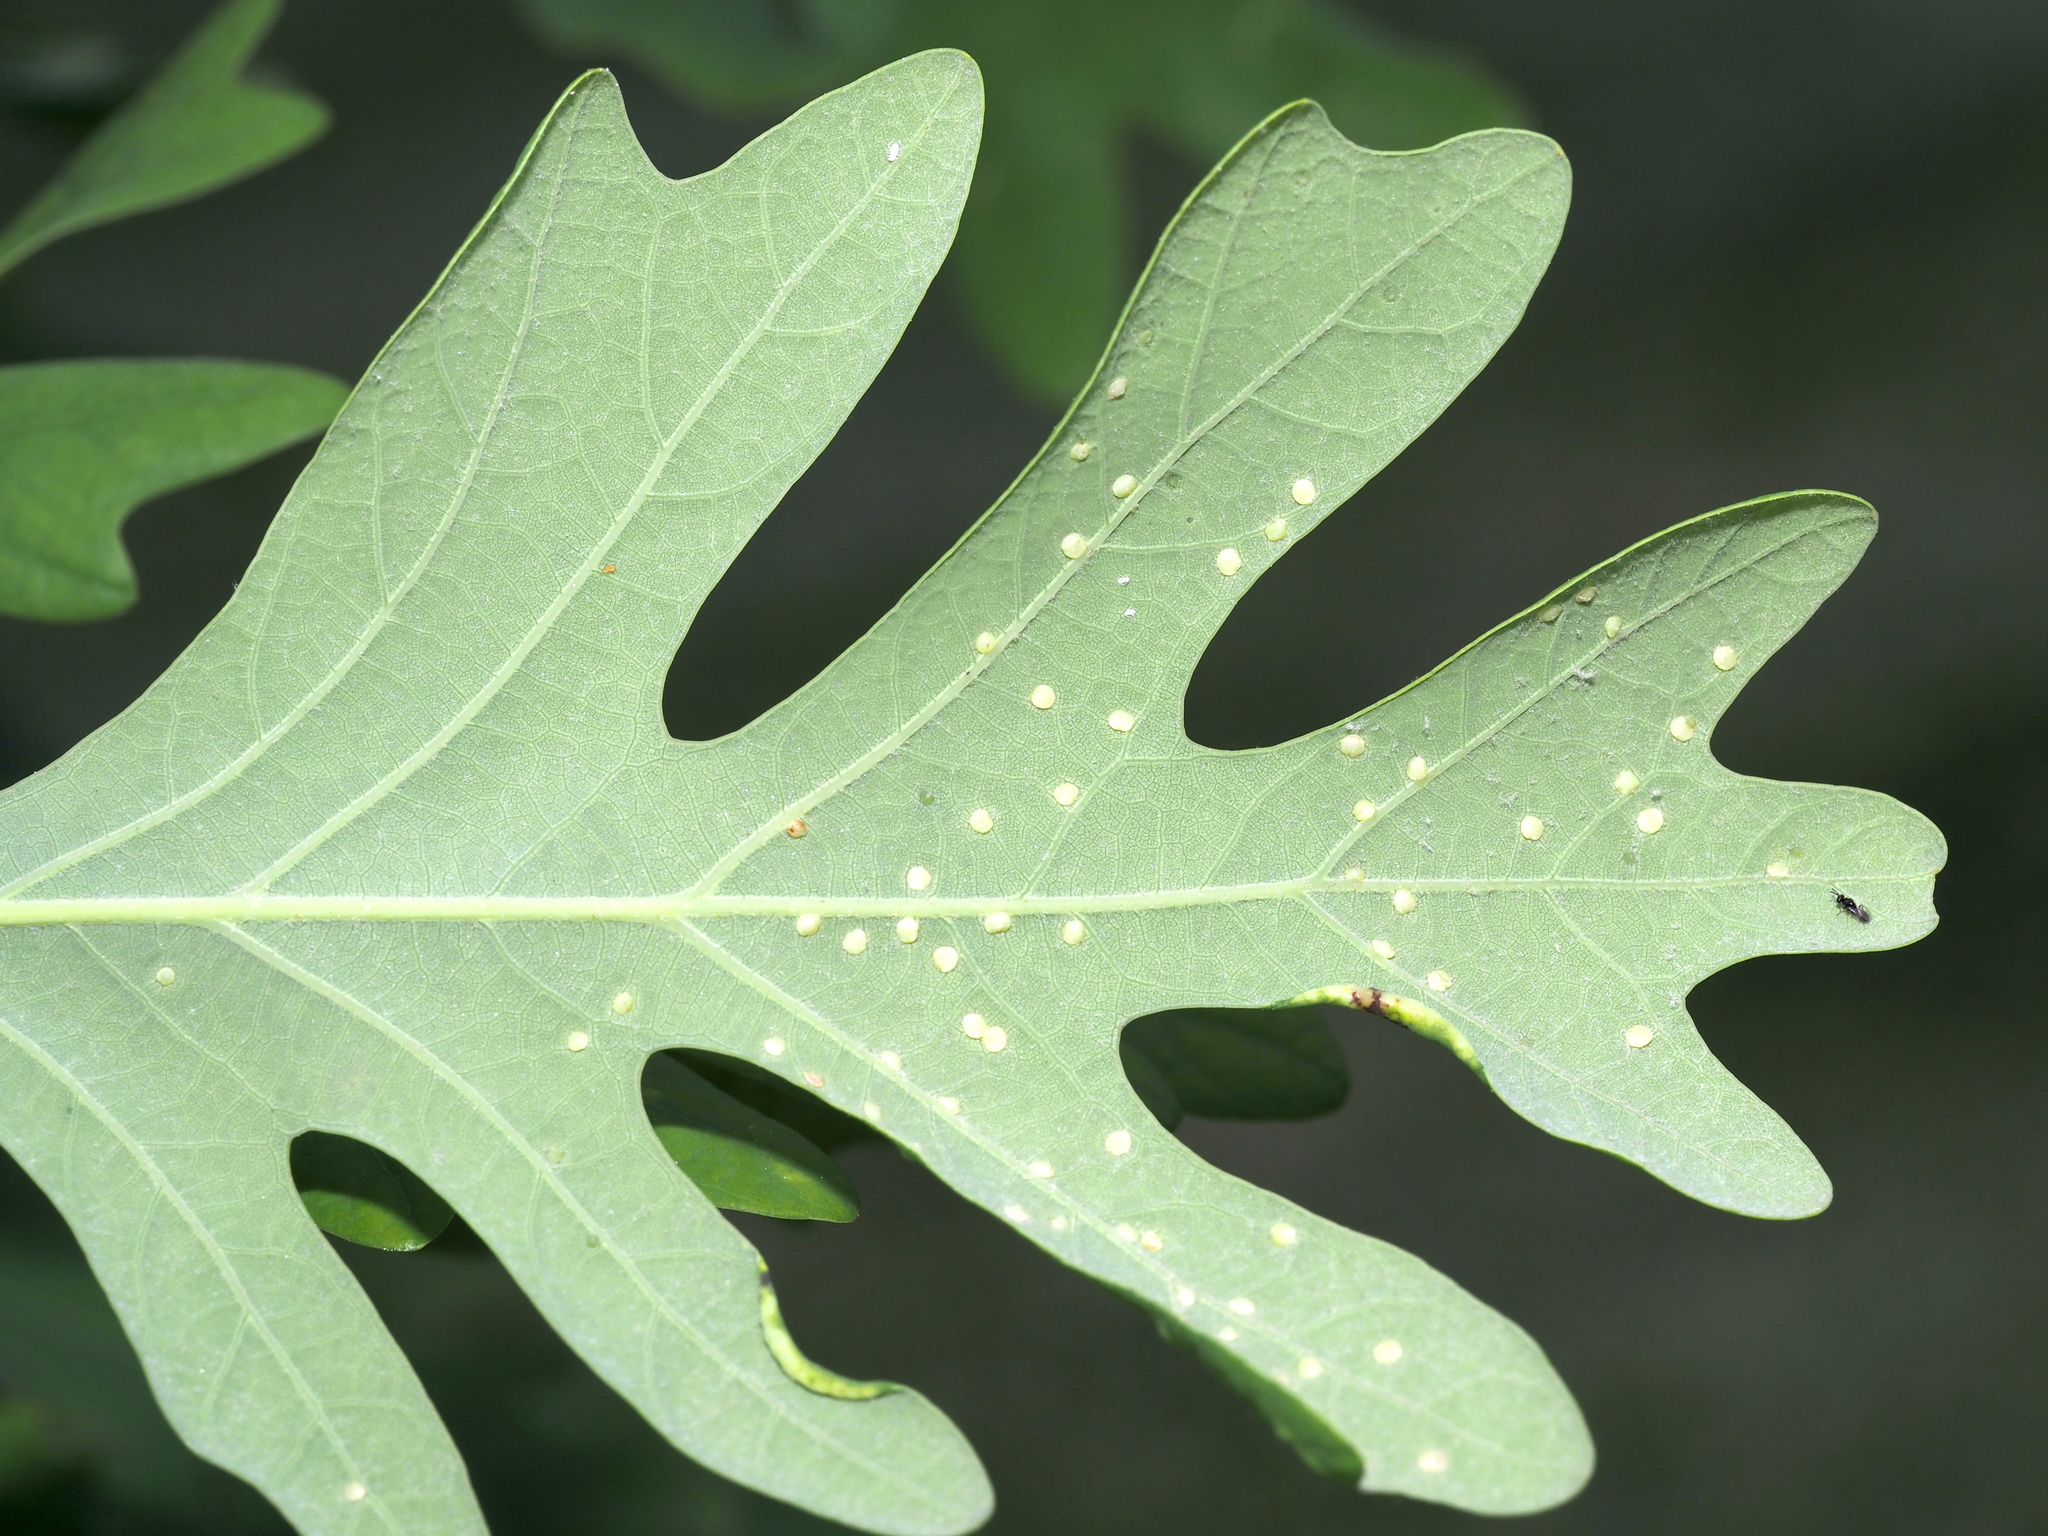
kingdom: Animalia
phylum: Arthropoda
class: Insecta
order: Hymenoptera
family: Cynipidae
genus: Neuroterus
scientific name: Neuroterus
